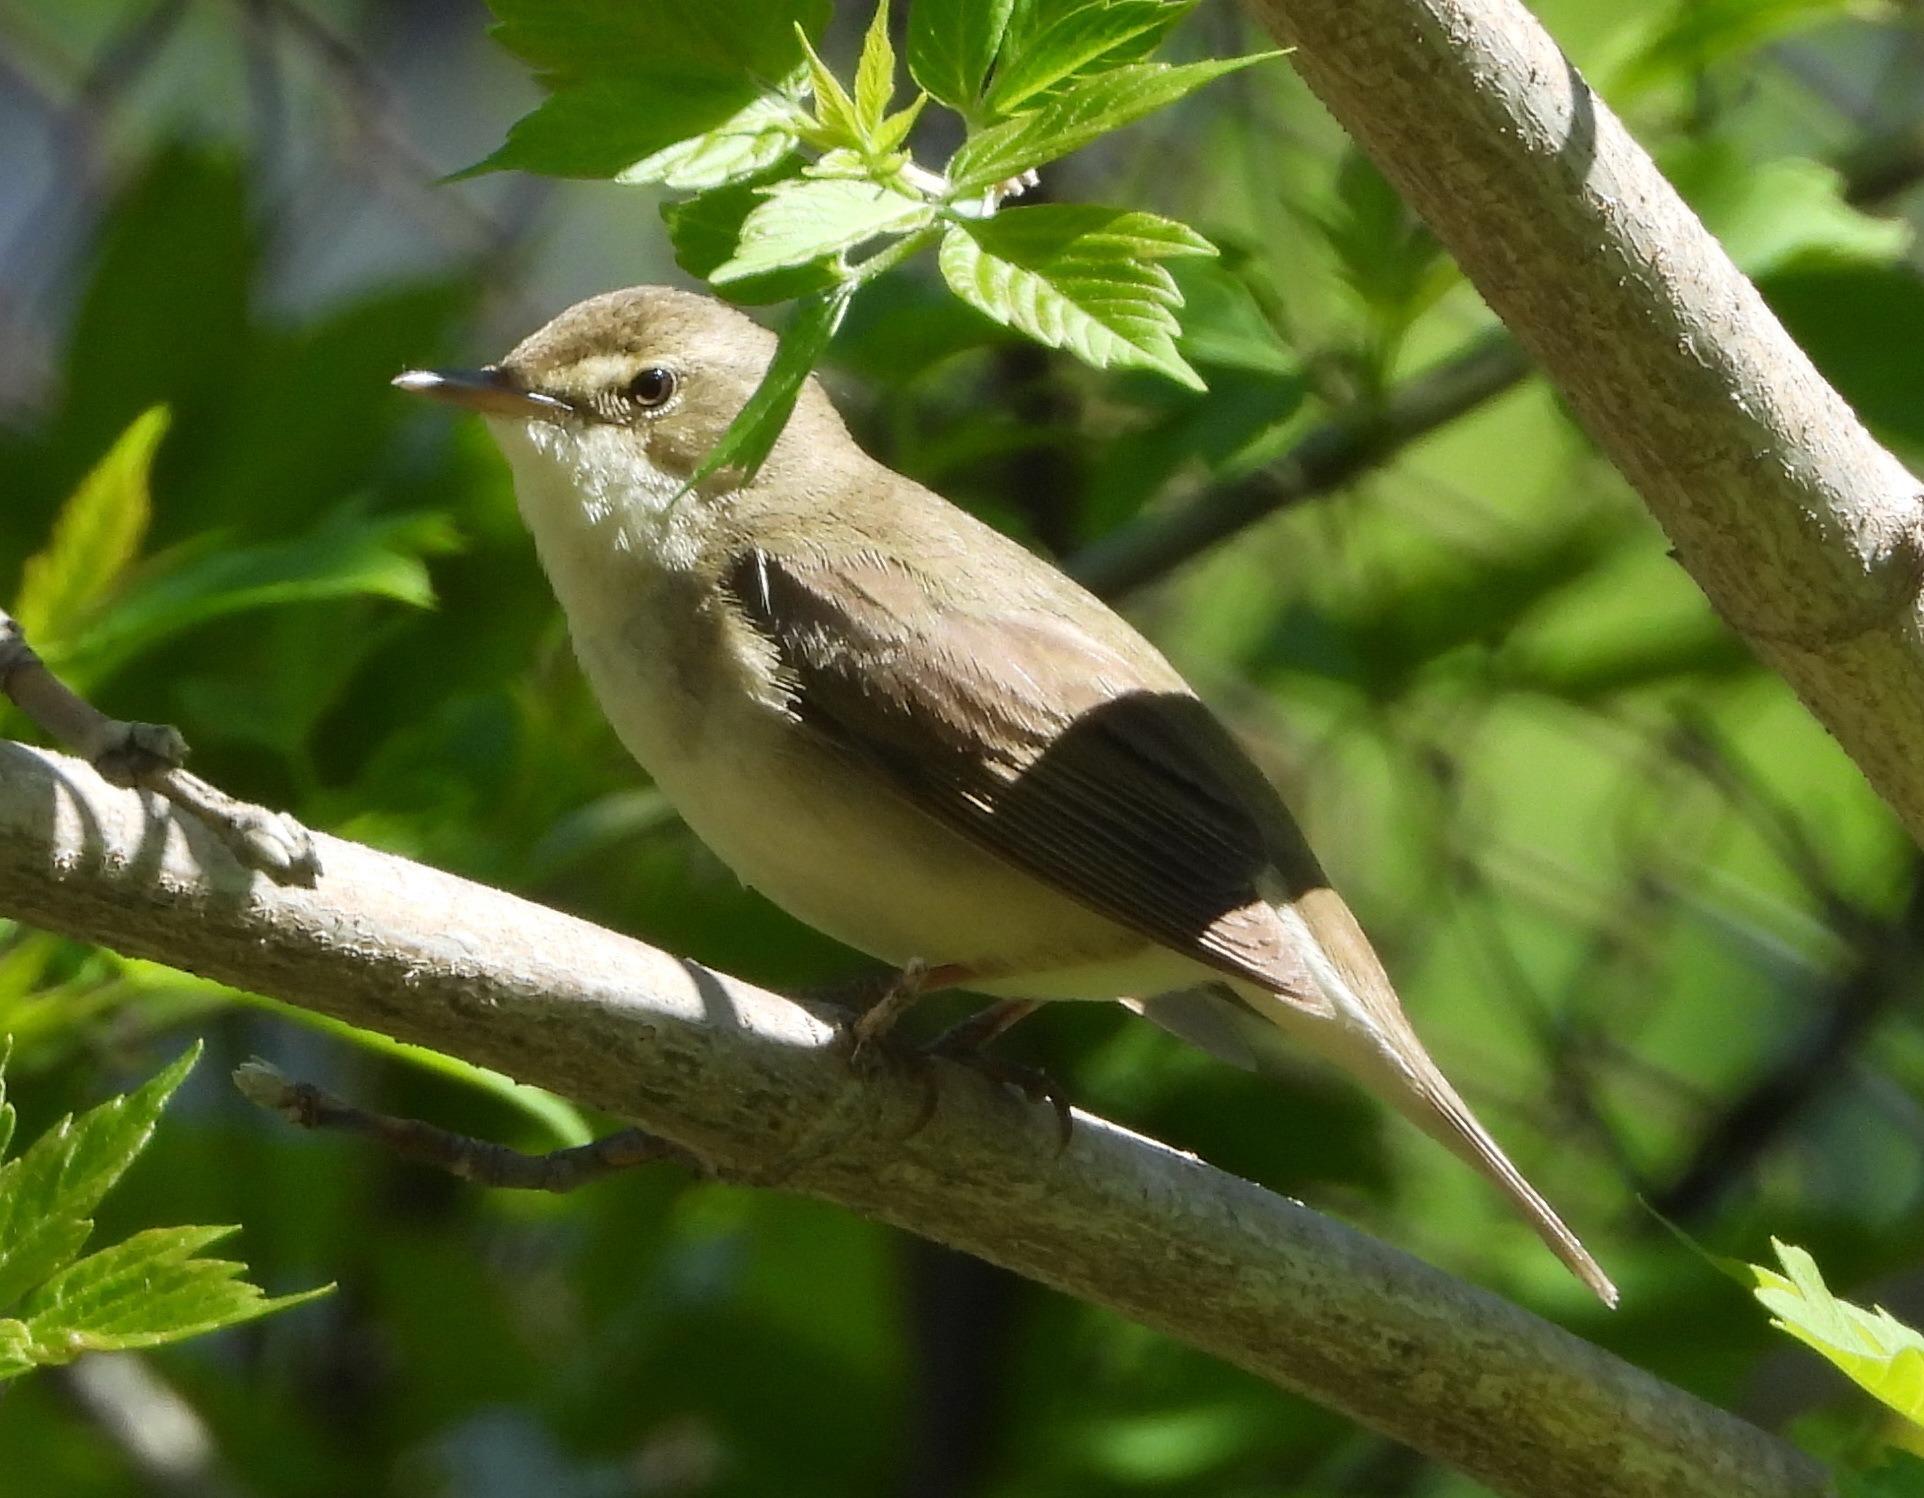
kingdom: Animalia
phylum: Chordata
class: Aves
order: Passeriformes
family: Acrocephalidae
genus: Acrocephalus
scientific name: Acrocephalus dumetorum
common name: Blyth's reed warbler
